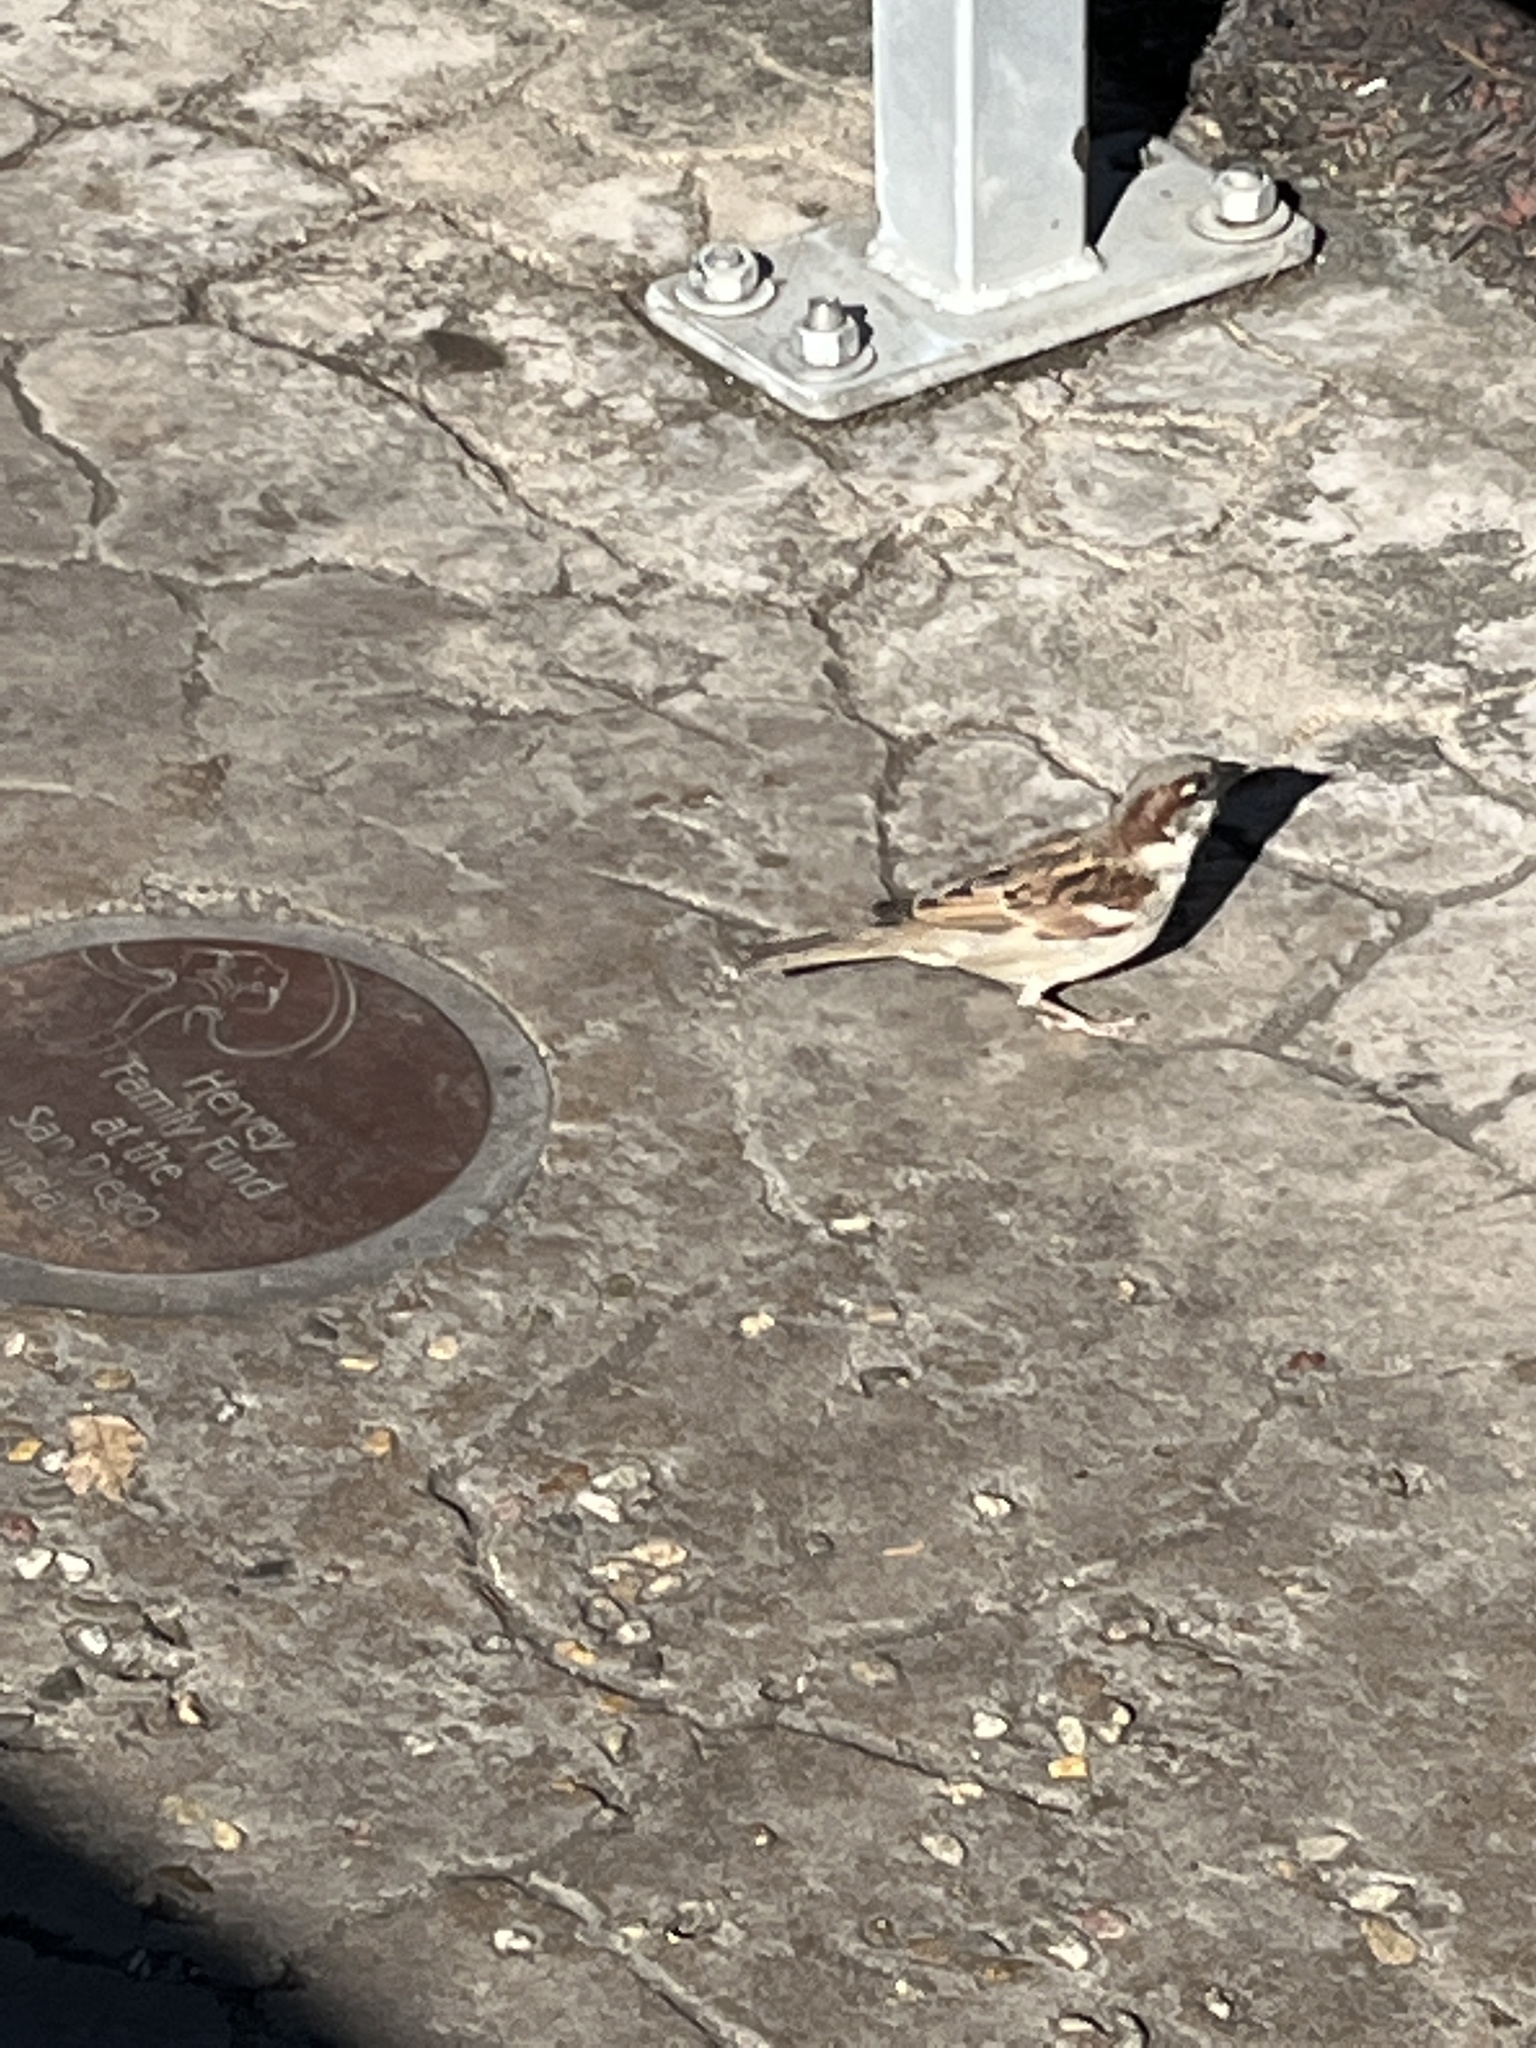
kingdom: Animalia
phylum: Chordata
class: Aves
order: Passeriformes
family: Passeridae
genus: Passer
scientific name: Passer domesticus
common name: House sparrow
